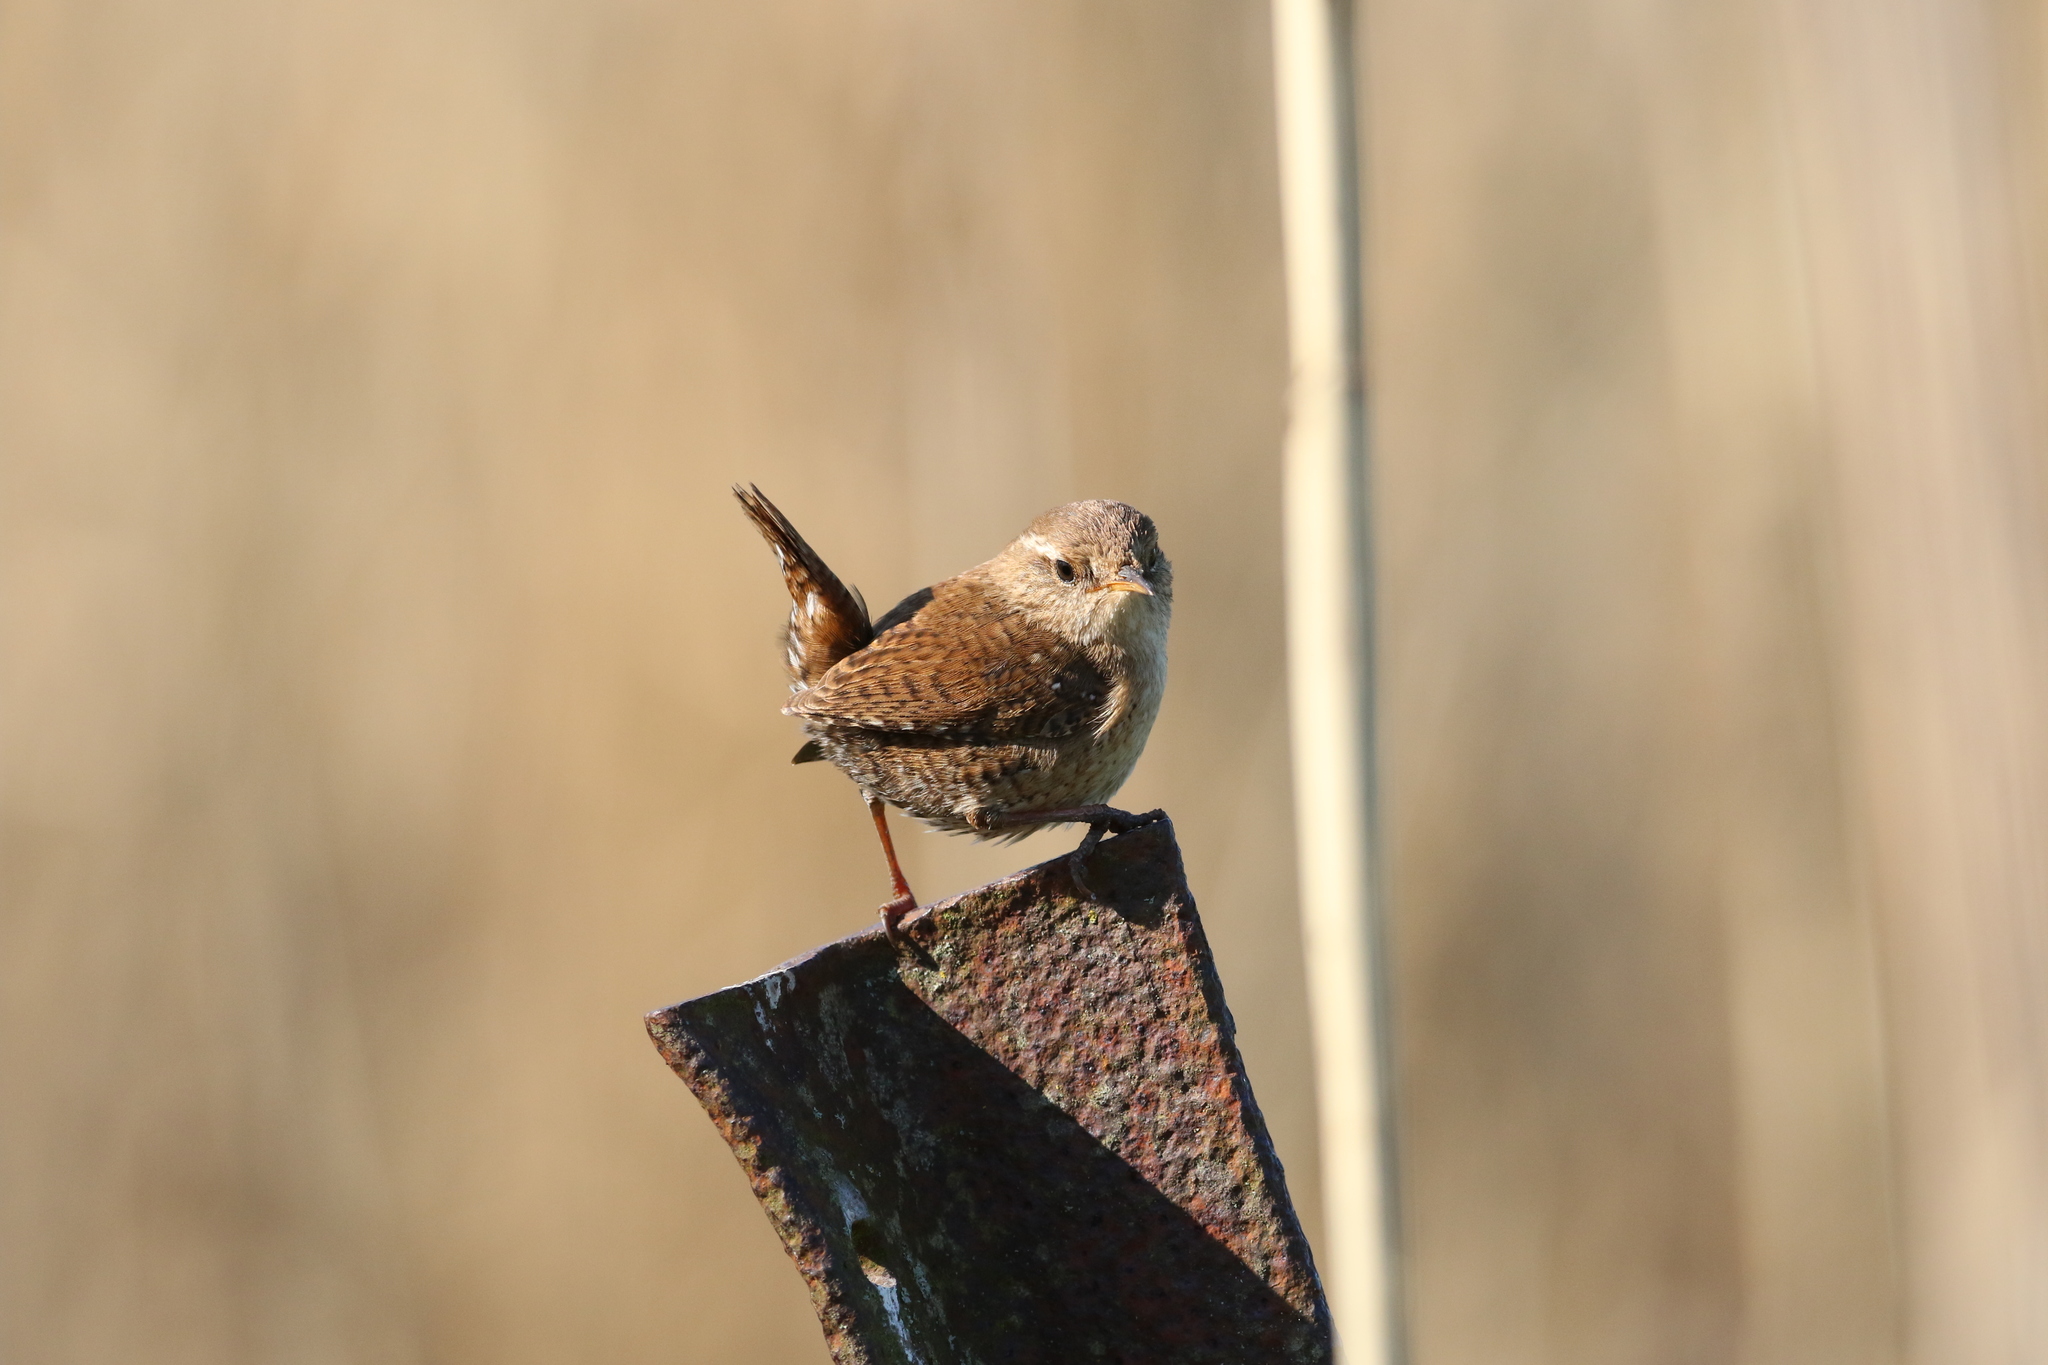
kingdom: Animalia
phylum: Chordata
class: Aves
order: Passeriformes
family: Troglodytidae
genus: Troglodytes
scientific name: Troglodytes troglodytes
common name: Eurasian wren
